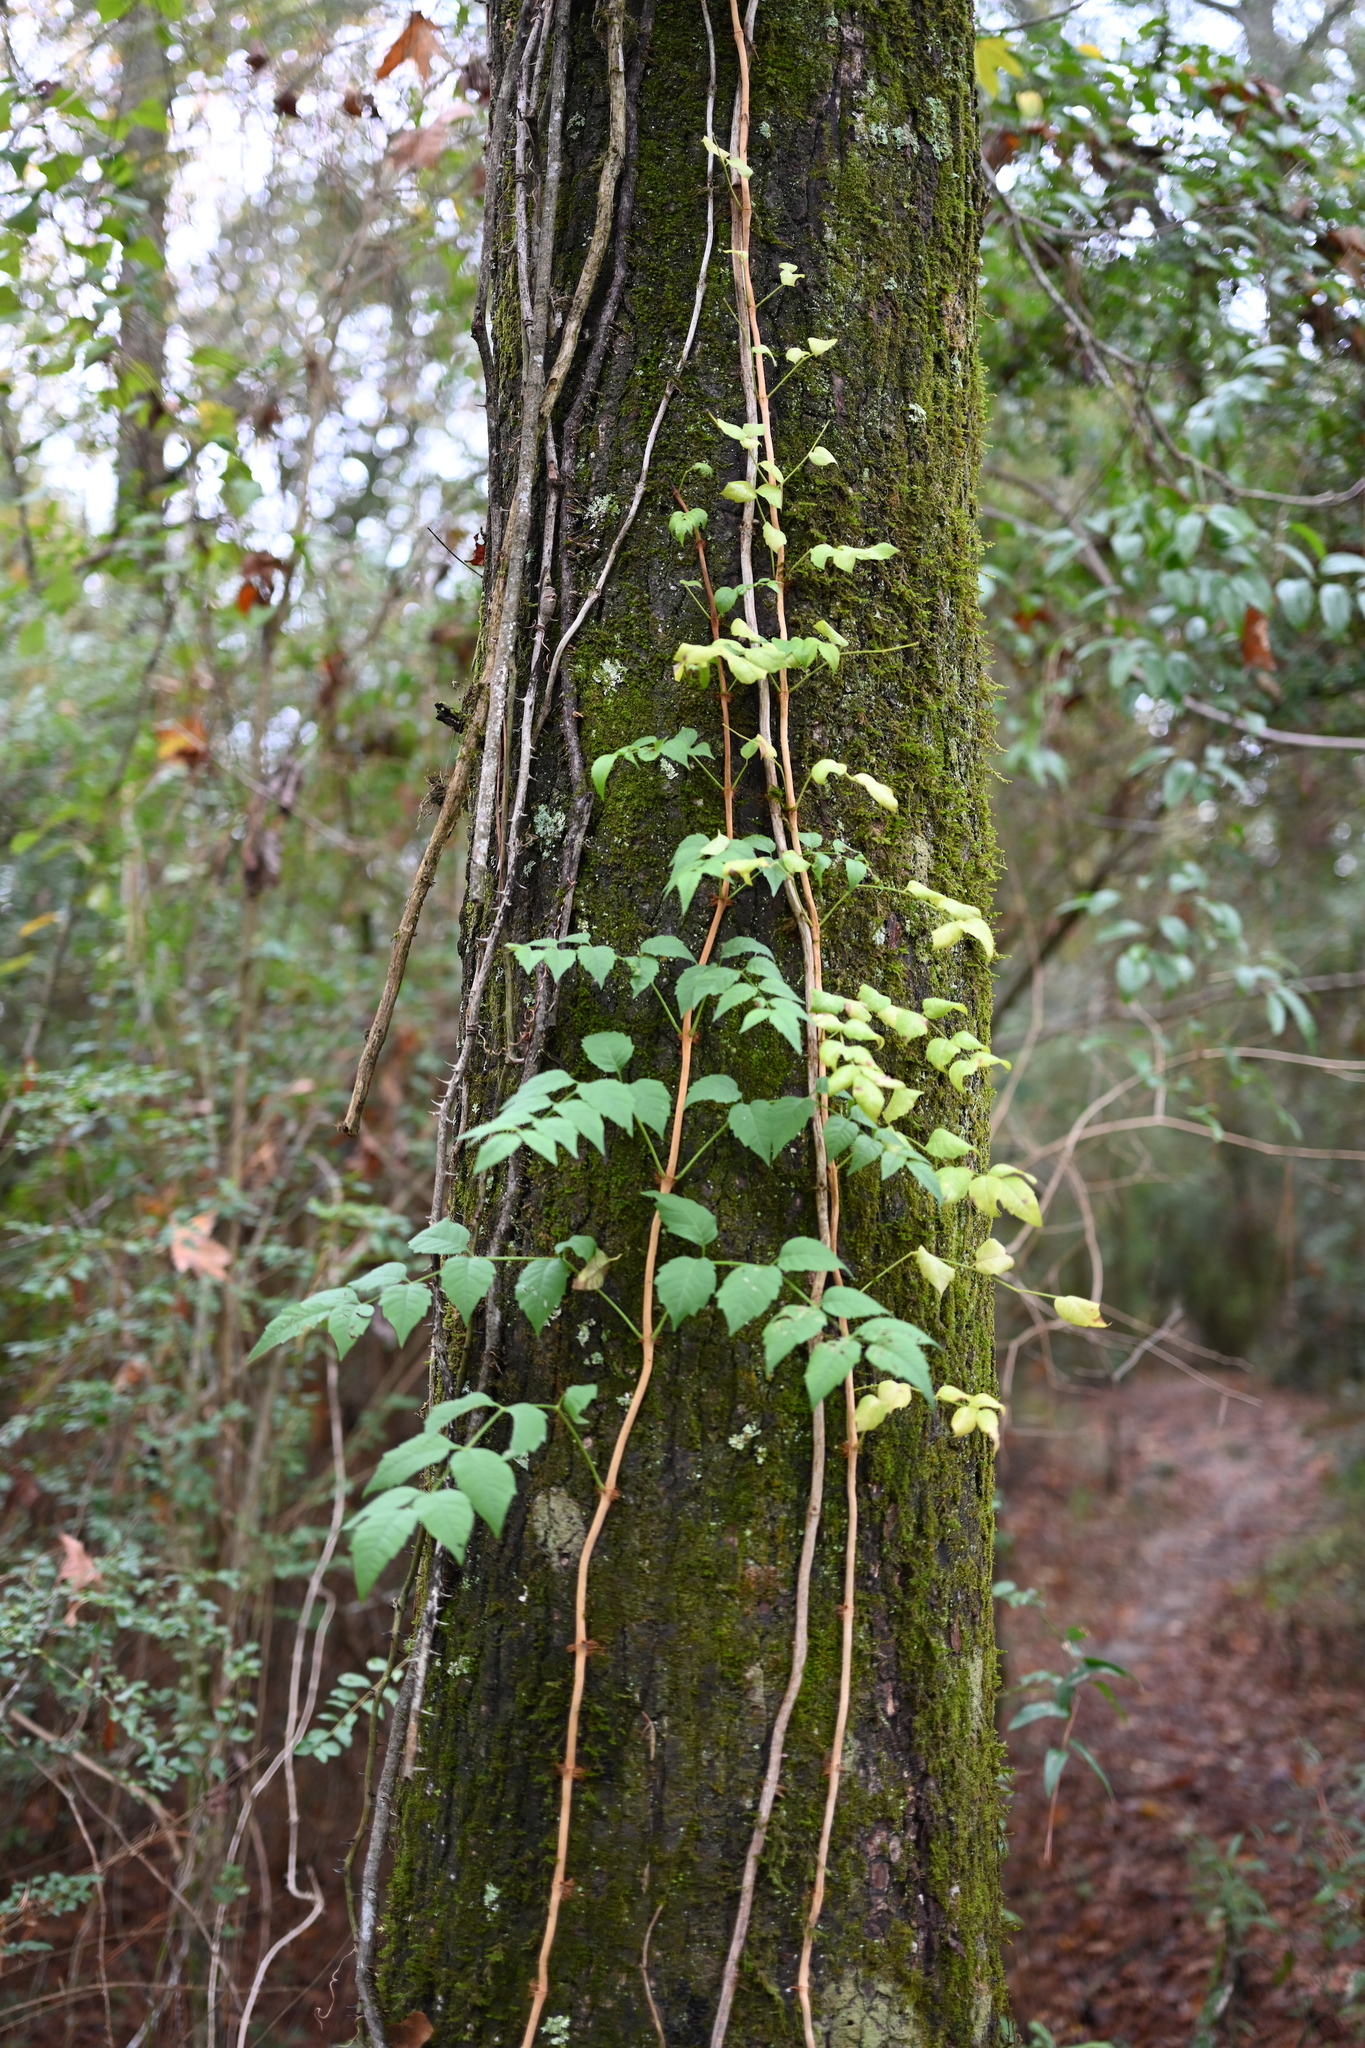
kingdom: Plantae
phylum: Tracheophyta
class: Magnoliopsida
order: Lamiales
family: Bignoniaceae
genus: Campsis
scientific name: Campsis radicans
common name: Trumpet-creeper
